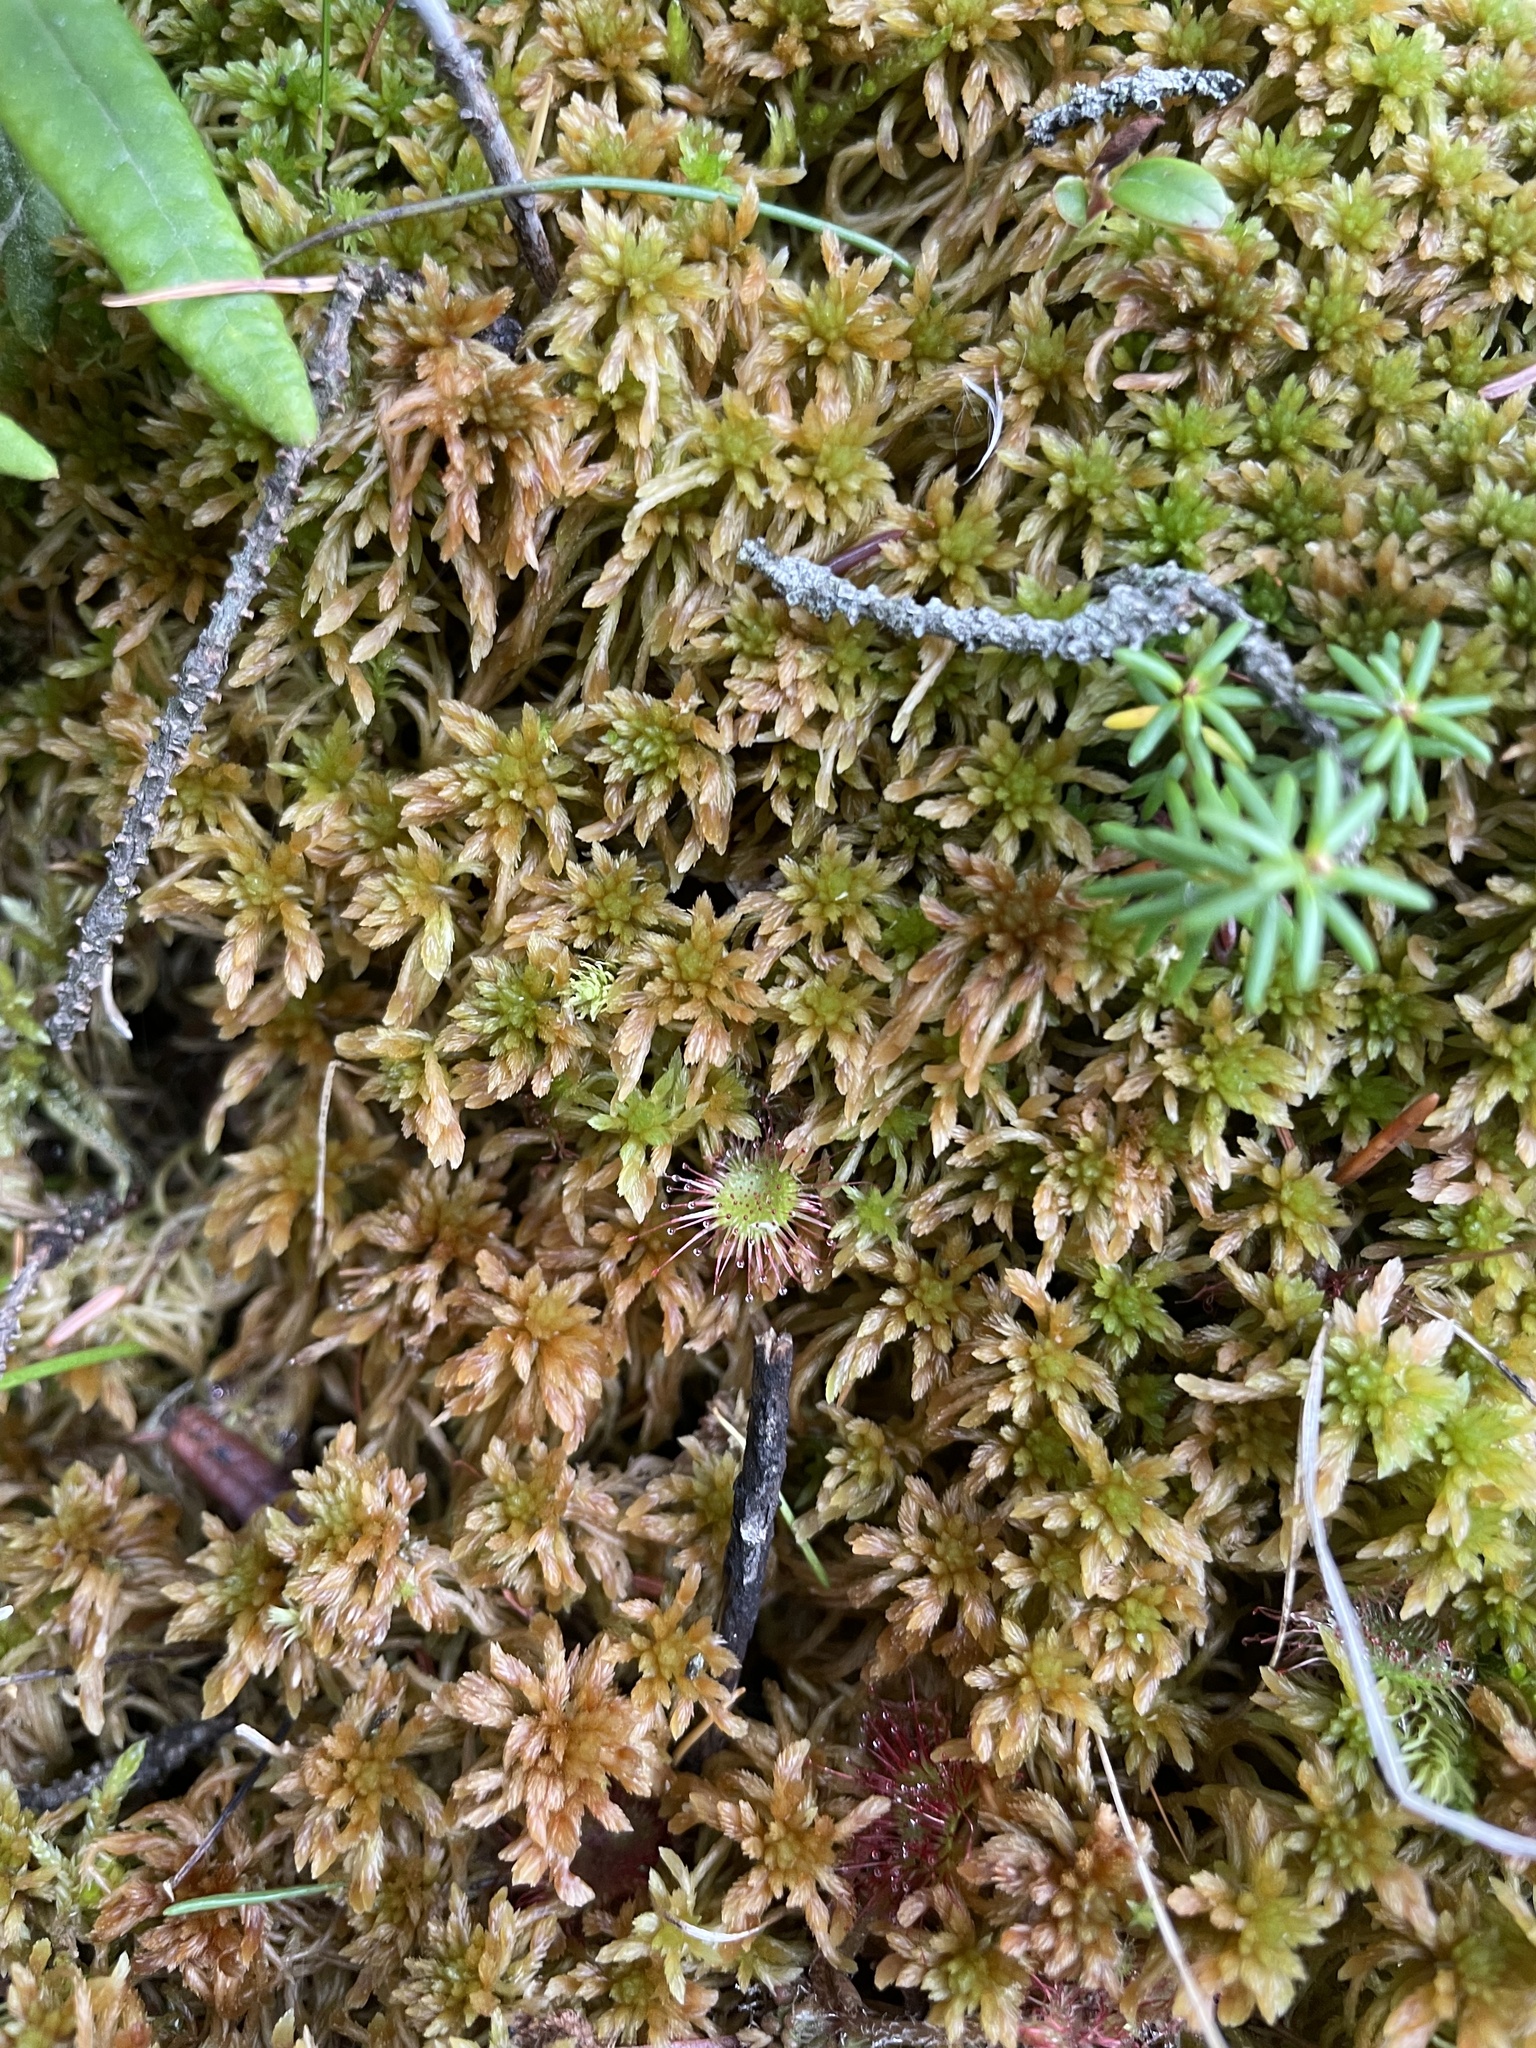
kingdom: Plantae
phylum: Tracheophyta
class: Magnoliopsida
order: Caryophyllales
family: Droseraceae
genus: Drosera
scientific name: Drosera rotundifolia
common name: Round-leaved sundew
